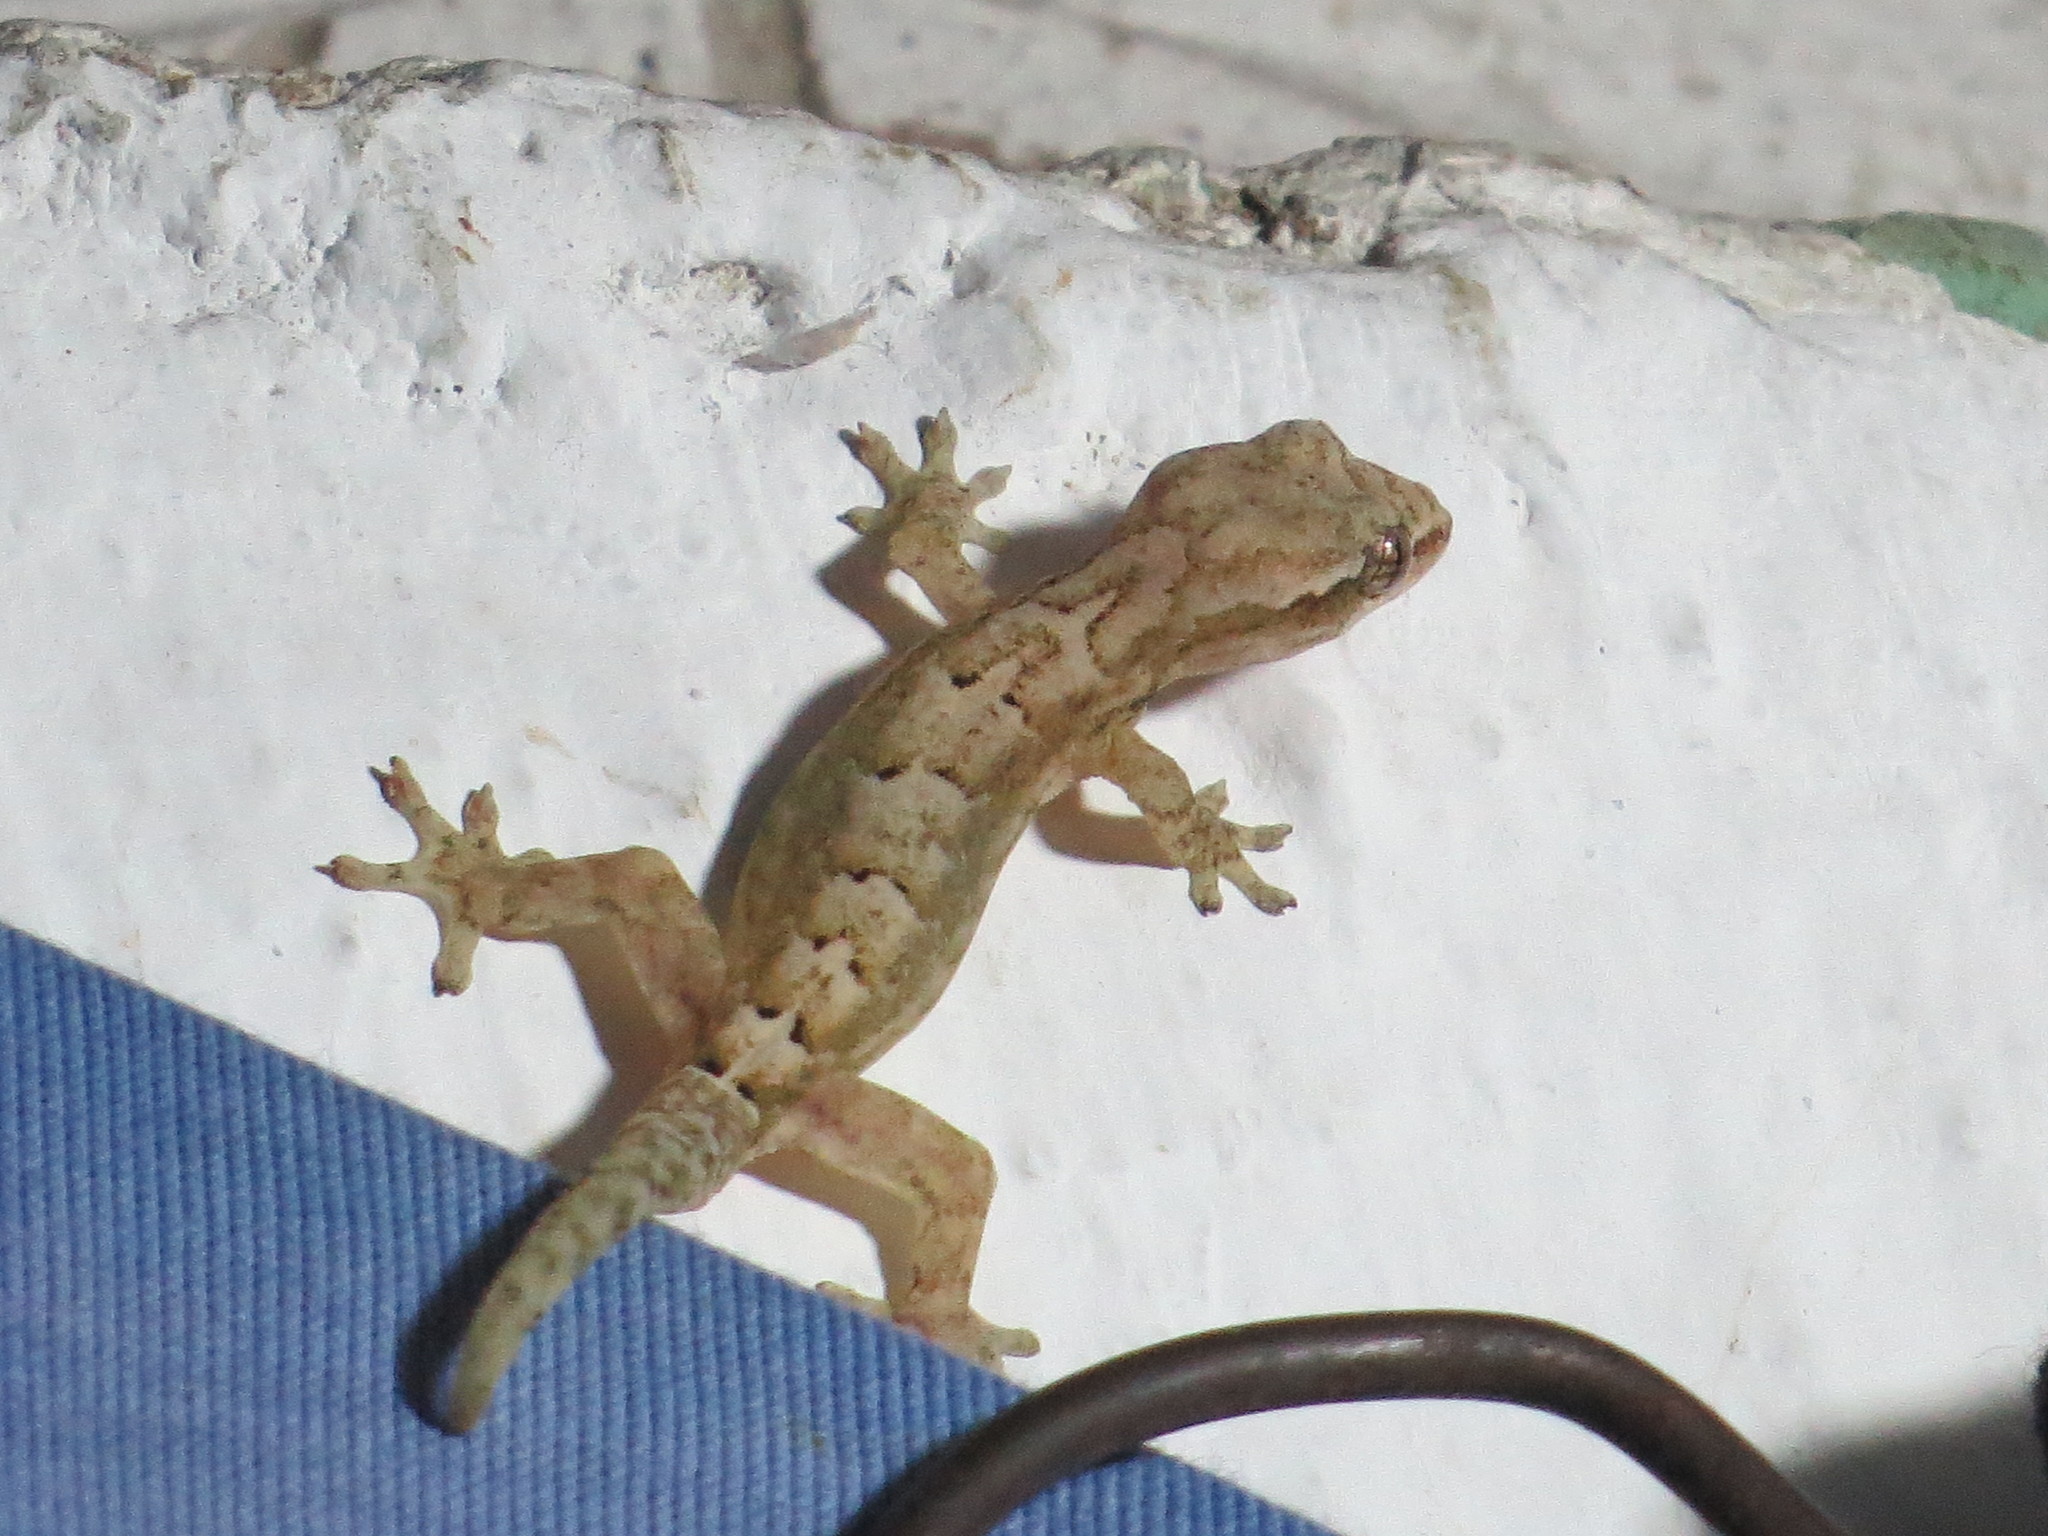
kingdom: Animalia
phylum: Chordata
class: Squamata
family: Gekkonidae
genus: Lepidodactylus
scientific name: Lepidodactylus lugubris
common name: Mourning gecko
